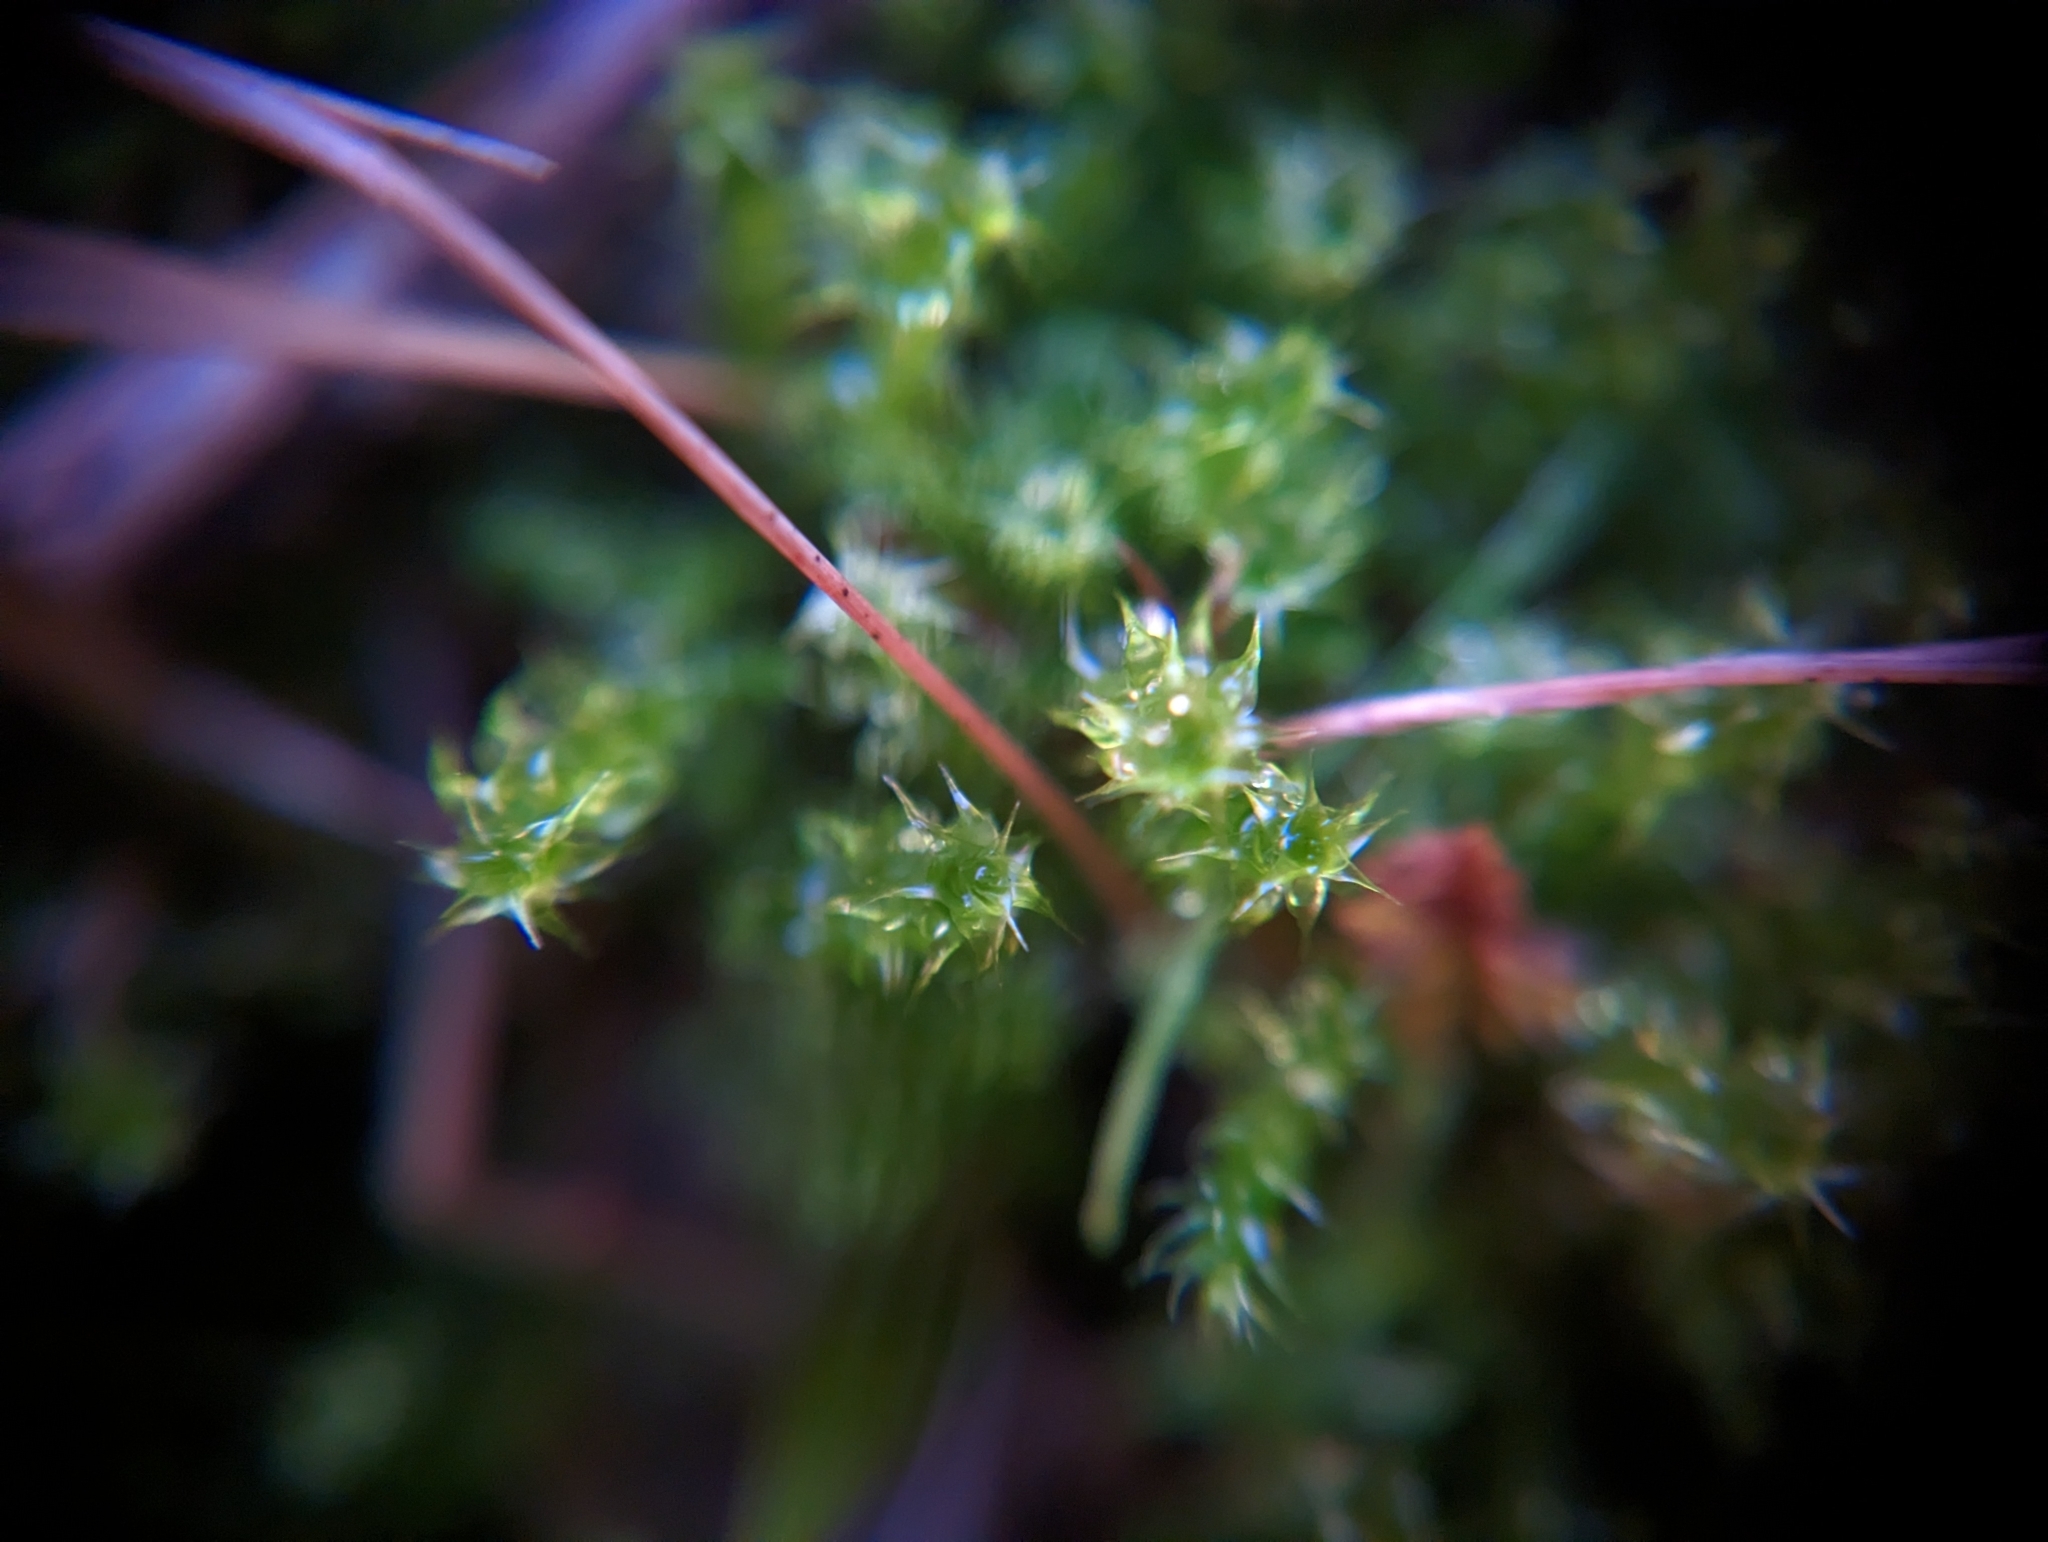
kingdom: Plantae
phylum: Bryophyta
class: Bryopsida
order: Hypnales
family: Hylocomiaceae
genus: Rhytidiadelphus
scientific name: Rhytidiadelphus squarrosus
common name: Springy turf-moss
